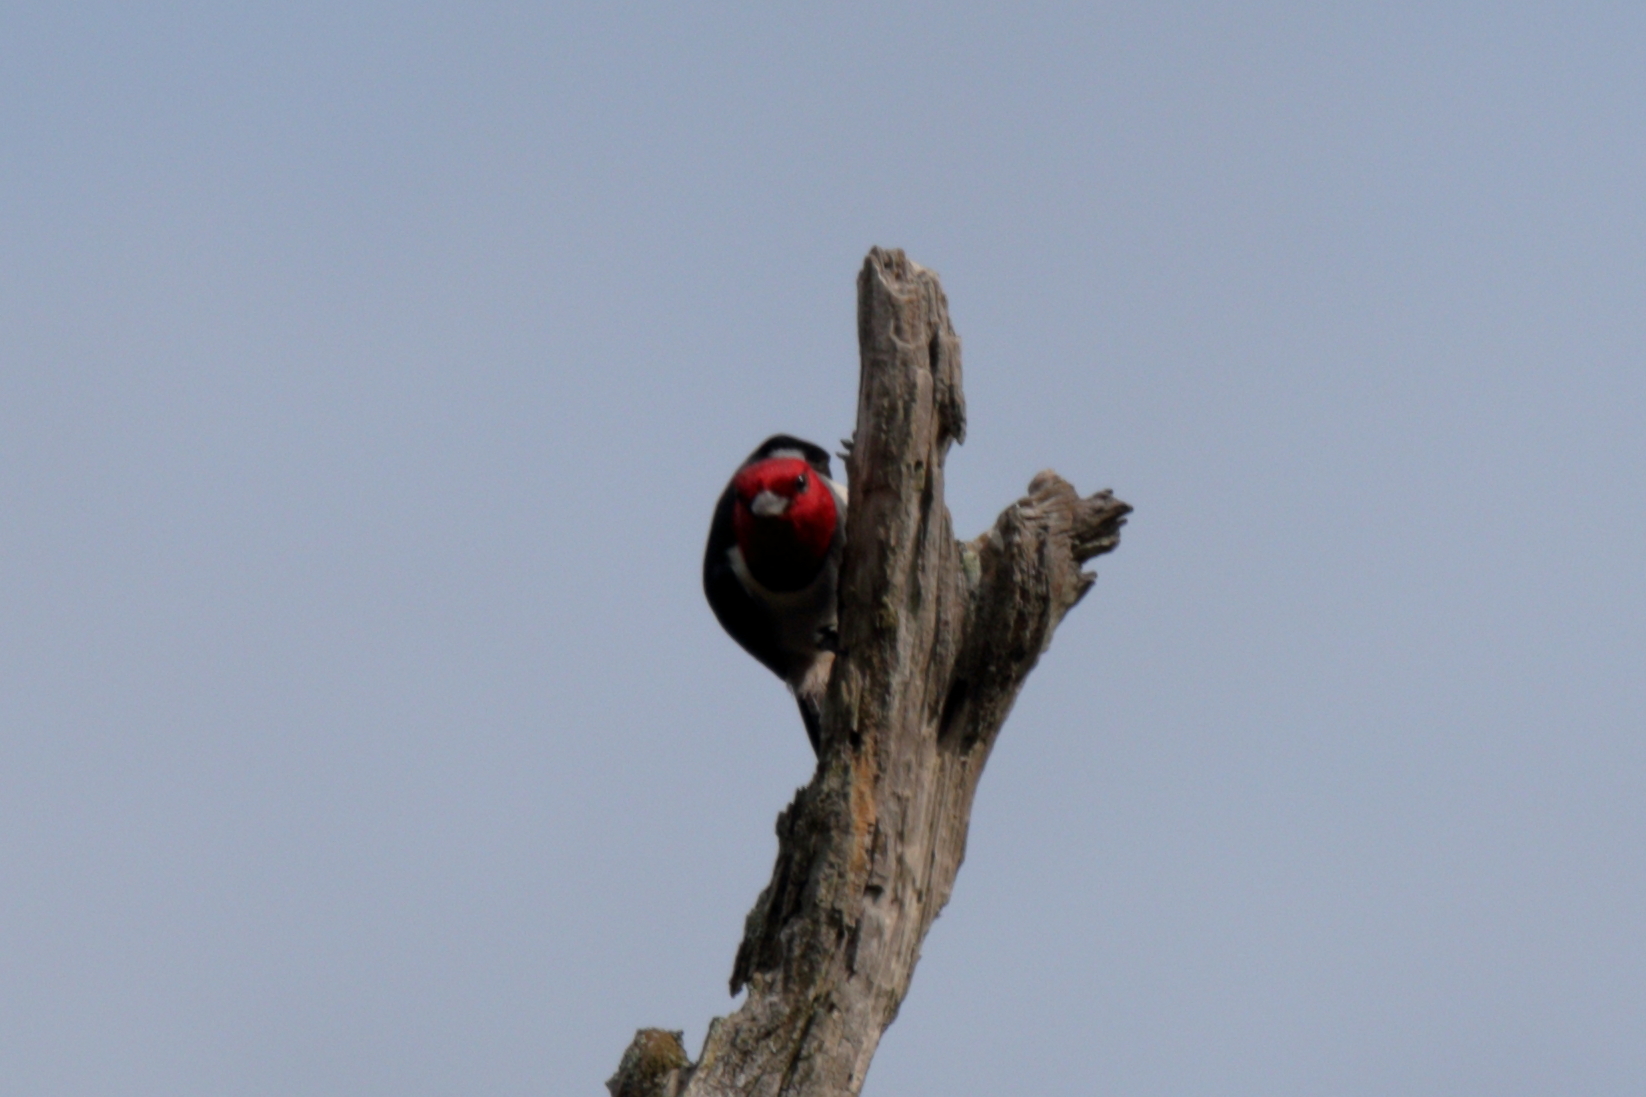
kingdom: Animalia
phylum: Chordata
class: Aves
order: Piciformes
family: Picidae
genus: Melanerpes
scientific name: Melanerpes erythrocephalus
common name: Red-headed woodpecker
